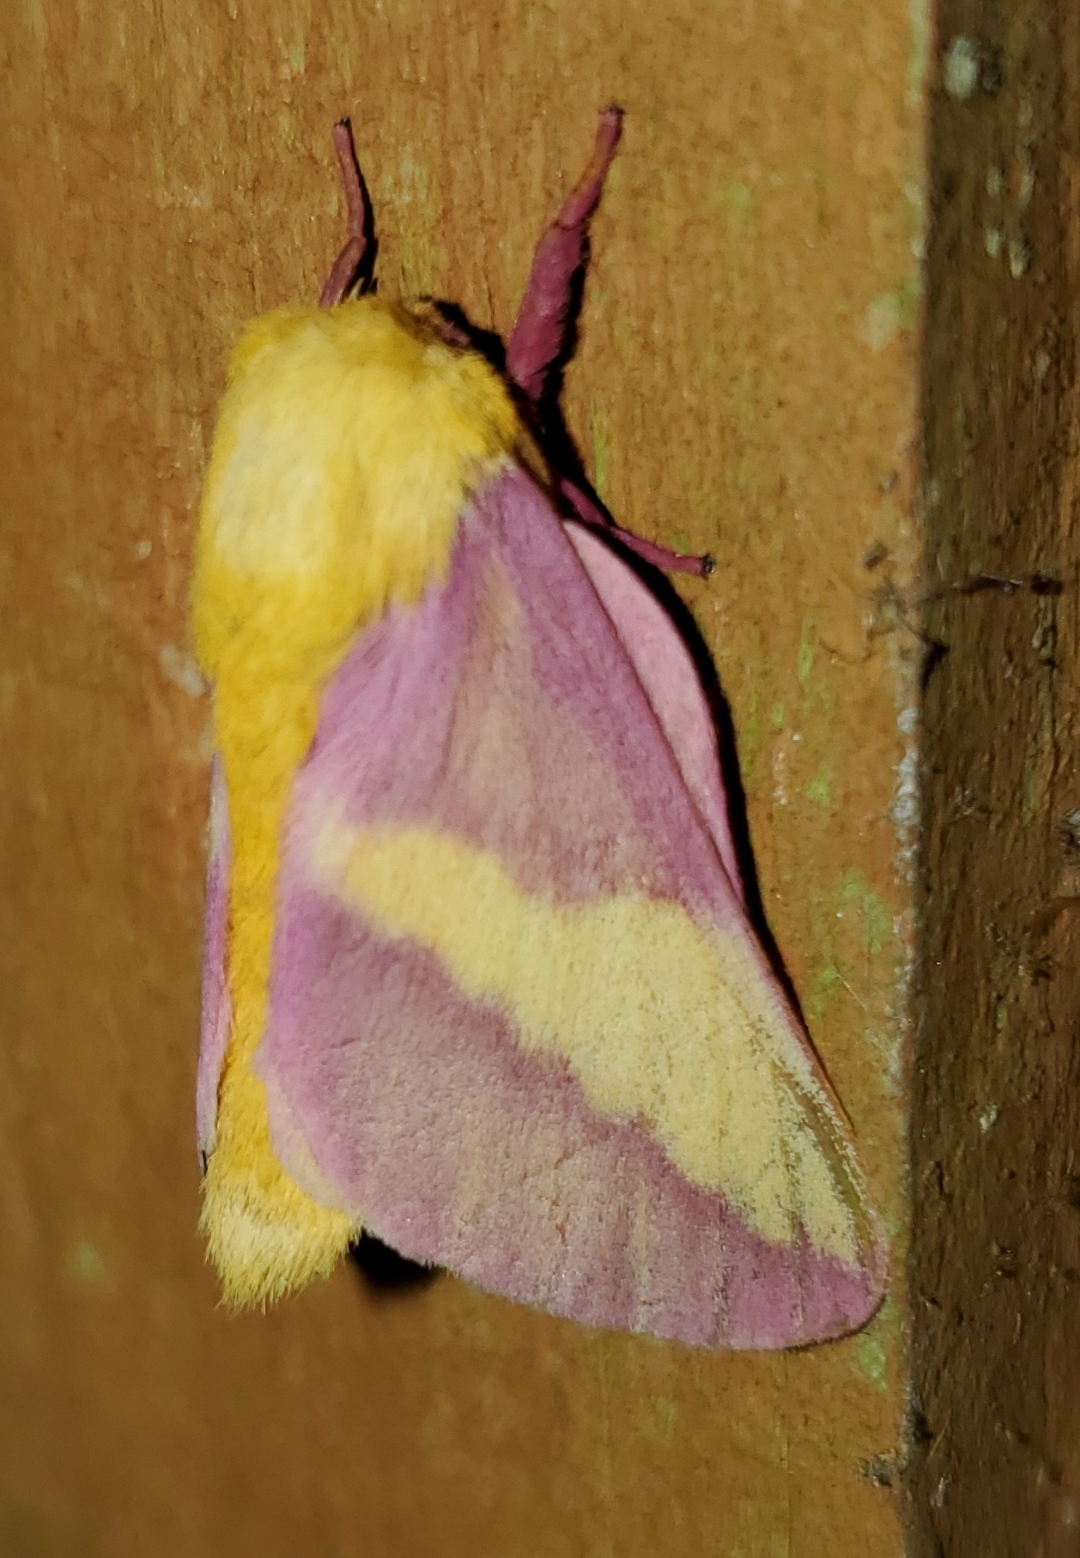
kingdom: Animalia
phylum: Arthropoda
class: Insecta
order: Lepidoptera
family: Saturniidae
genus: Dryocampa
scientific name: Dryocampa rubicunda
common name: Rosy maple moth
